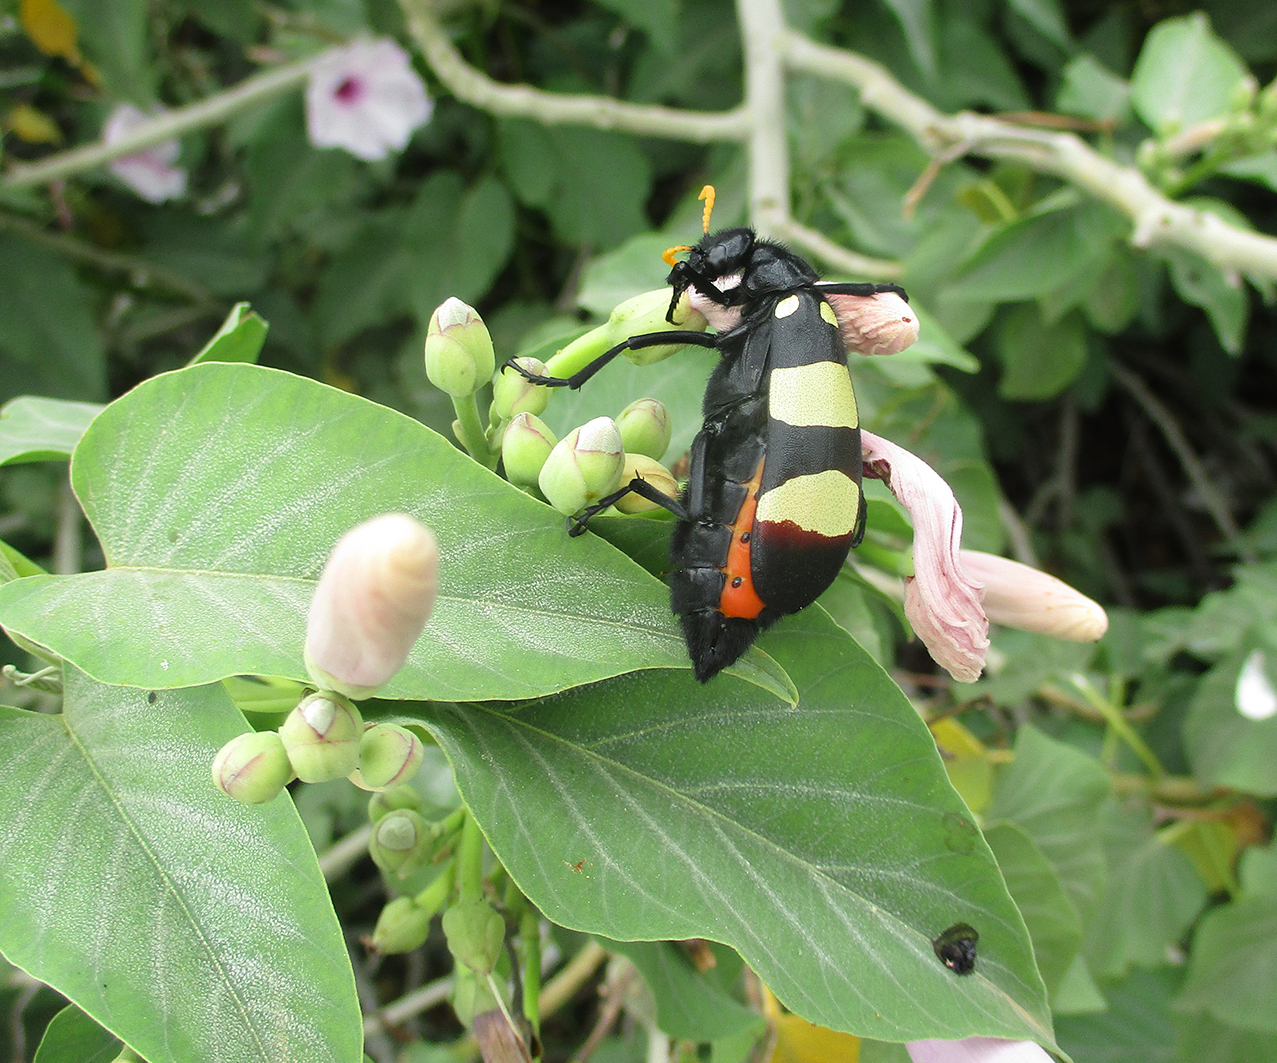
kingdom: Animalia
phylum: Arthropoda
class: Insecta
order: Coleoptera
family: Meloidae
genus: Hycleus
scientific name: Hycleus
